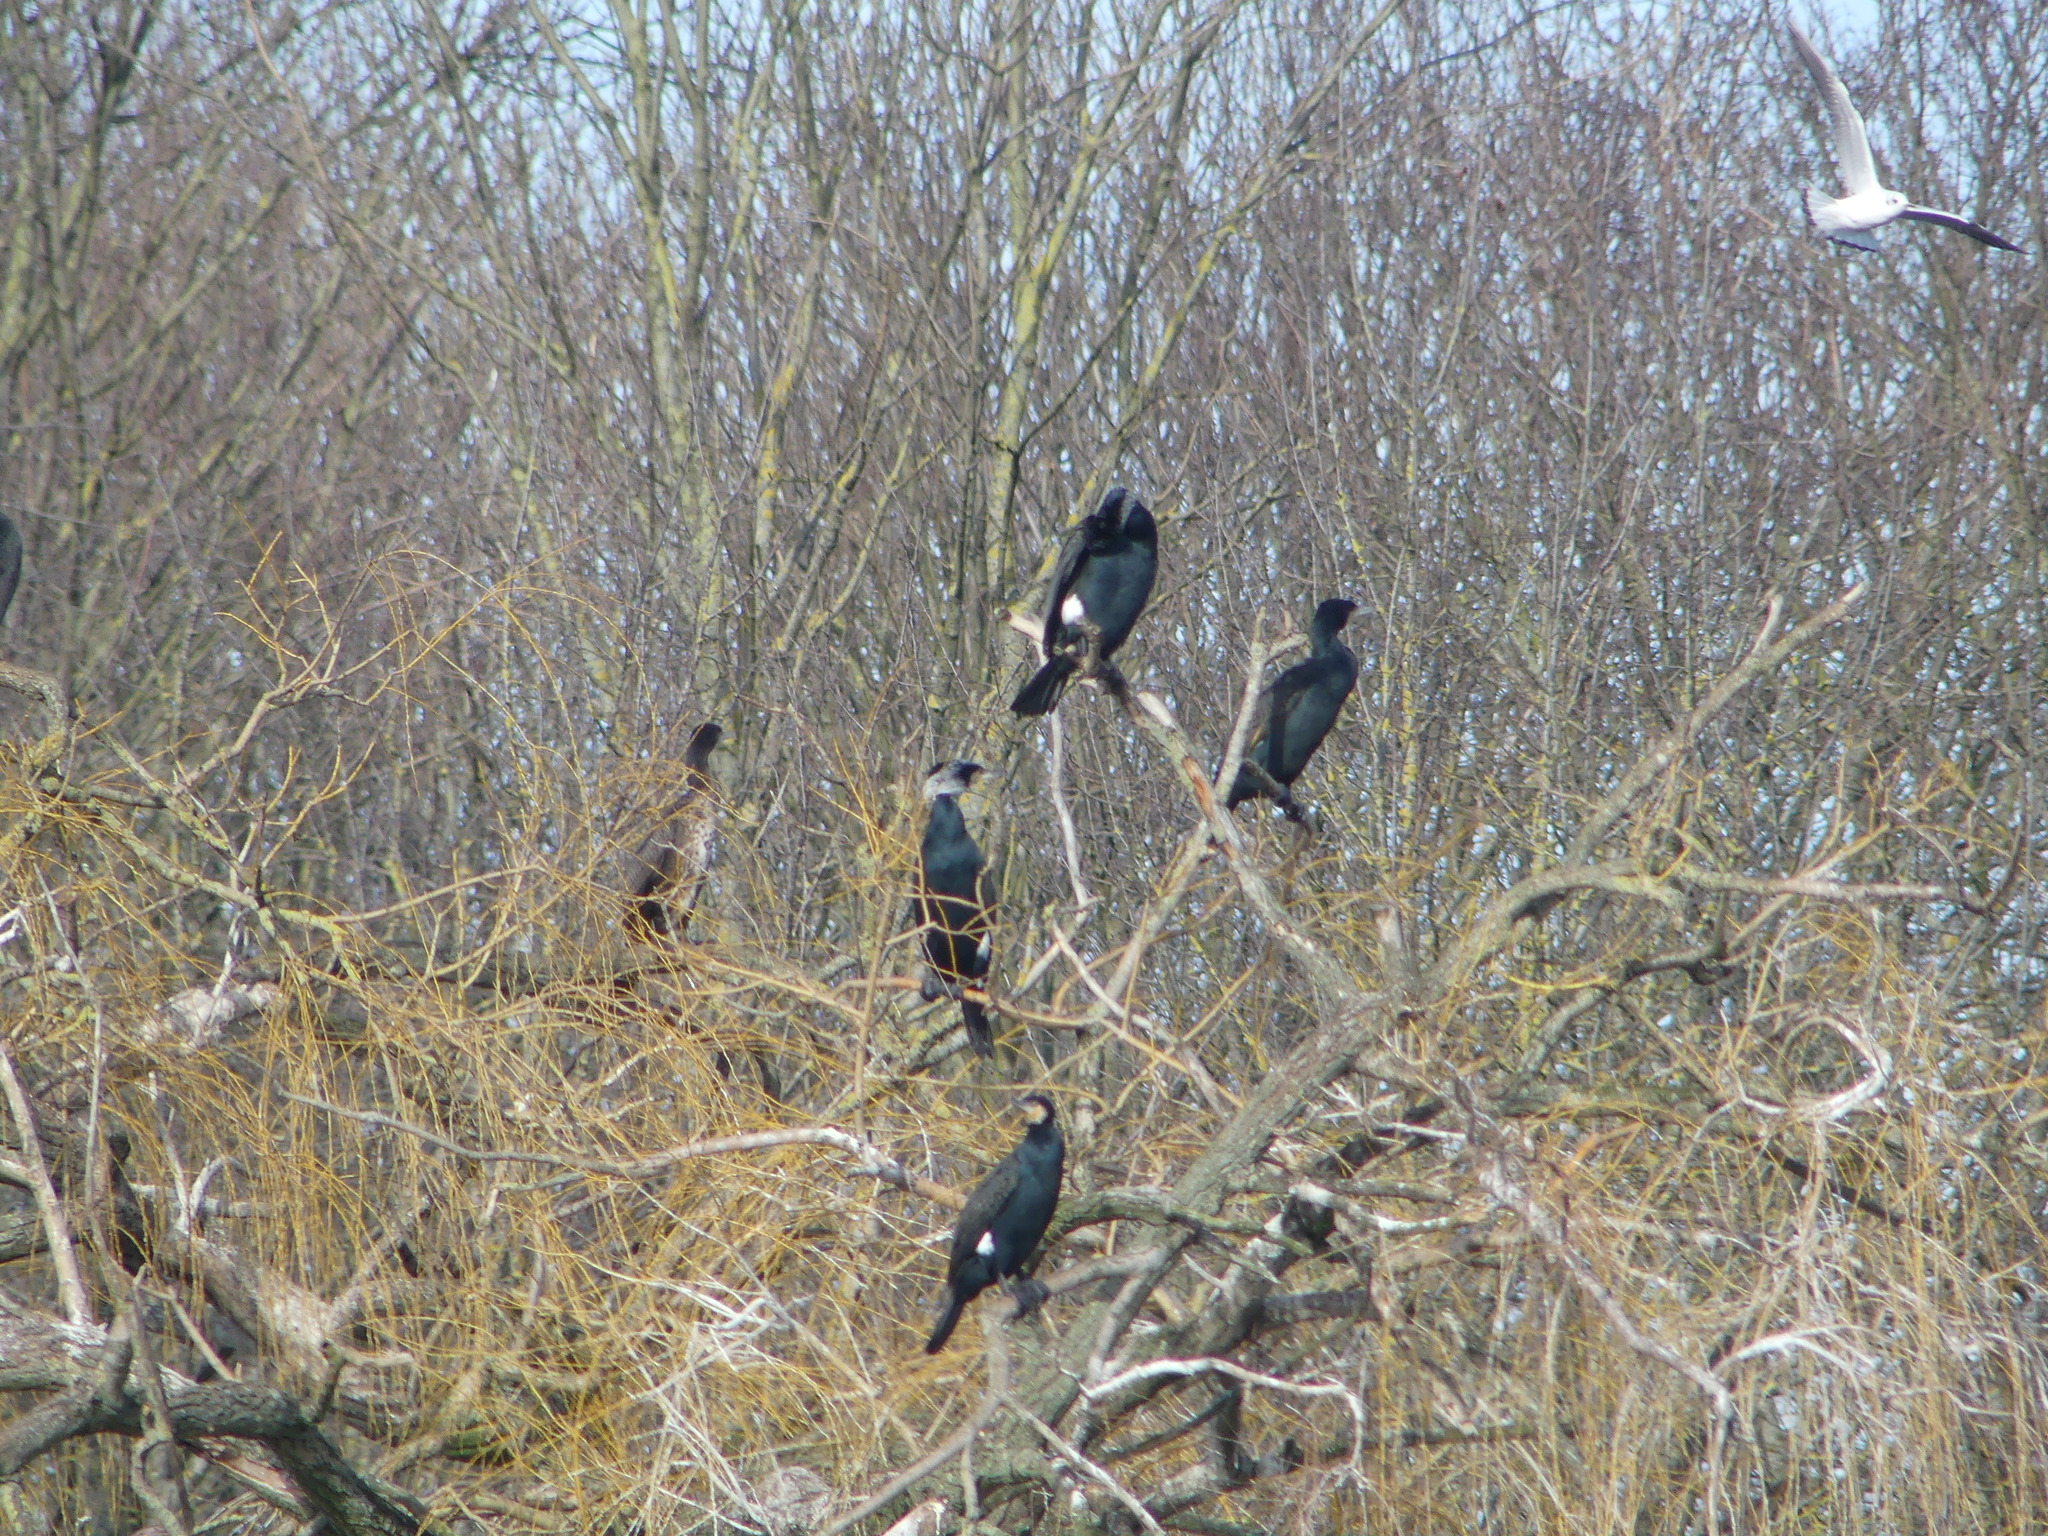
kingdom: Animalia
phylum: Chordata
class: Aves
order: Suliformes
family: Phalacrocoracidae
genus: Phalacrocorax
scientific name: Phalacrocorax carbo
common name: Great cormorant
